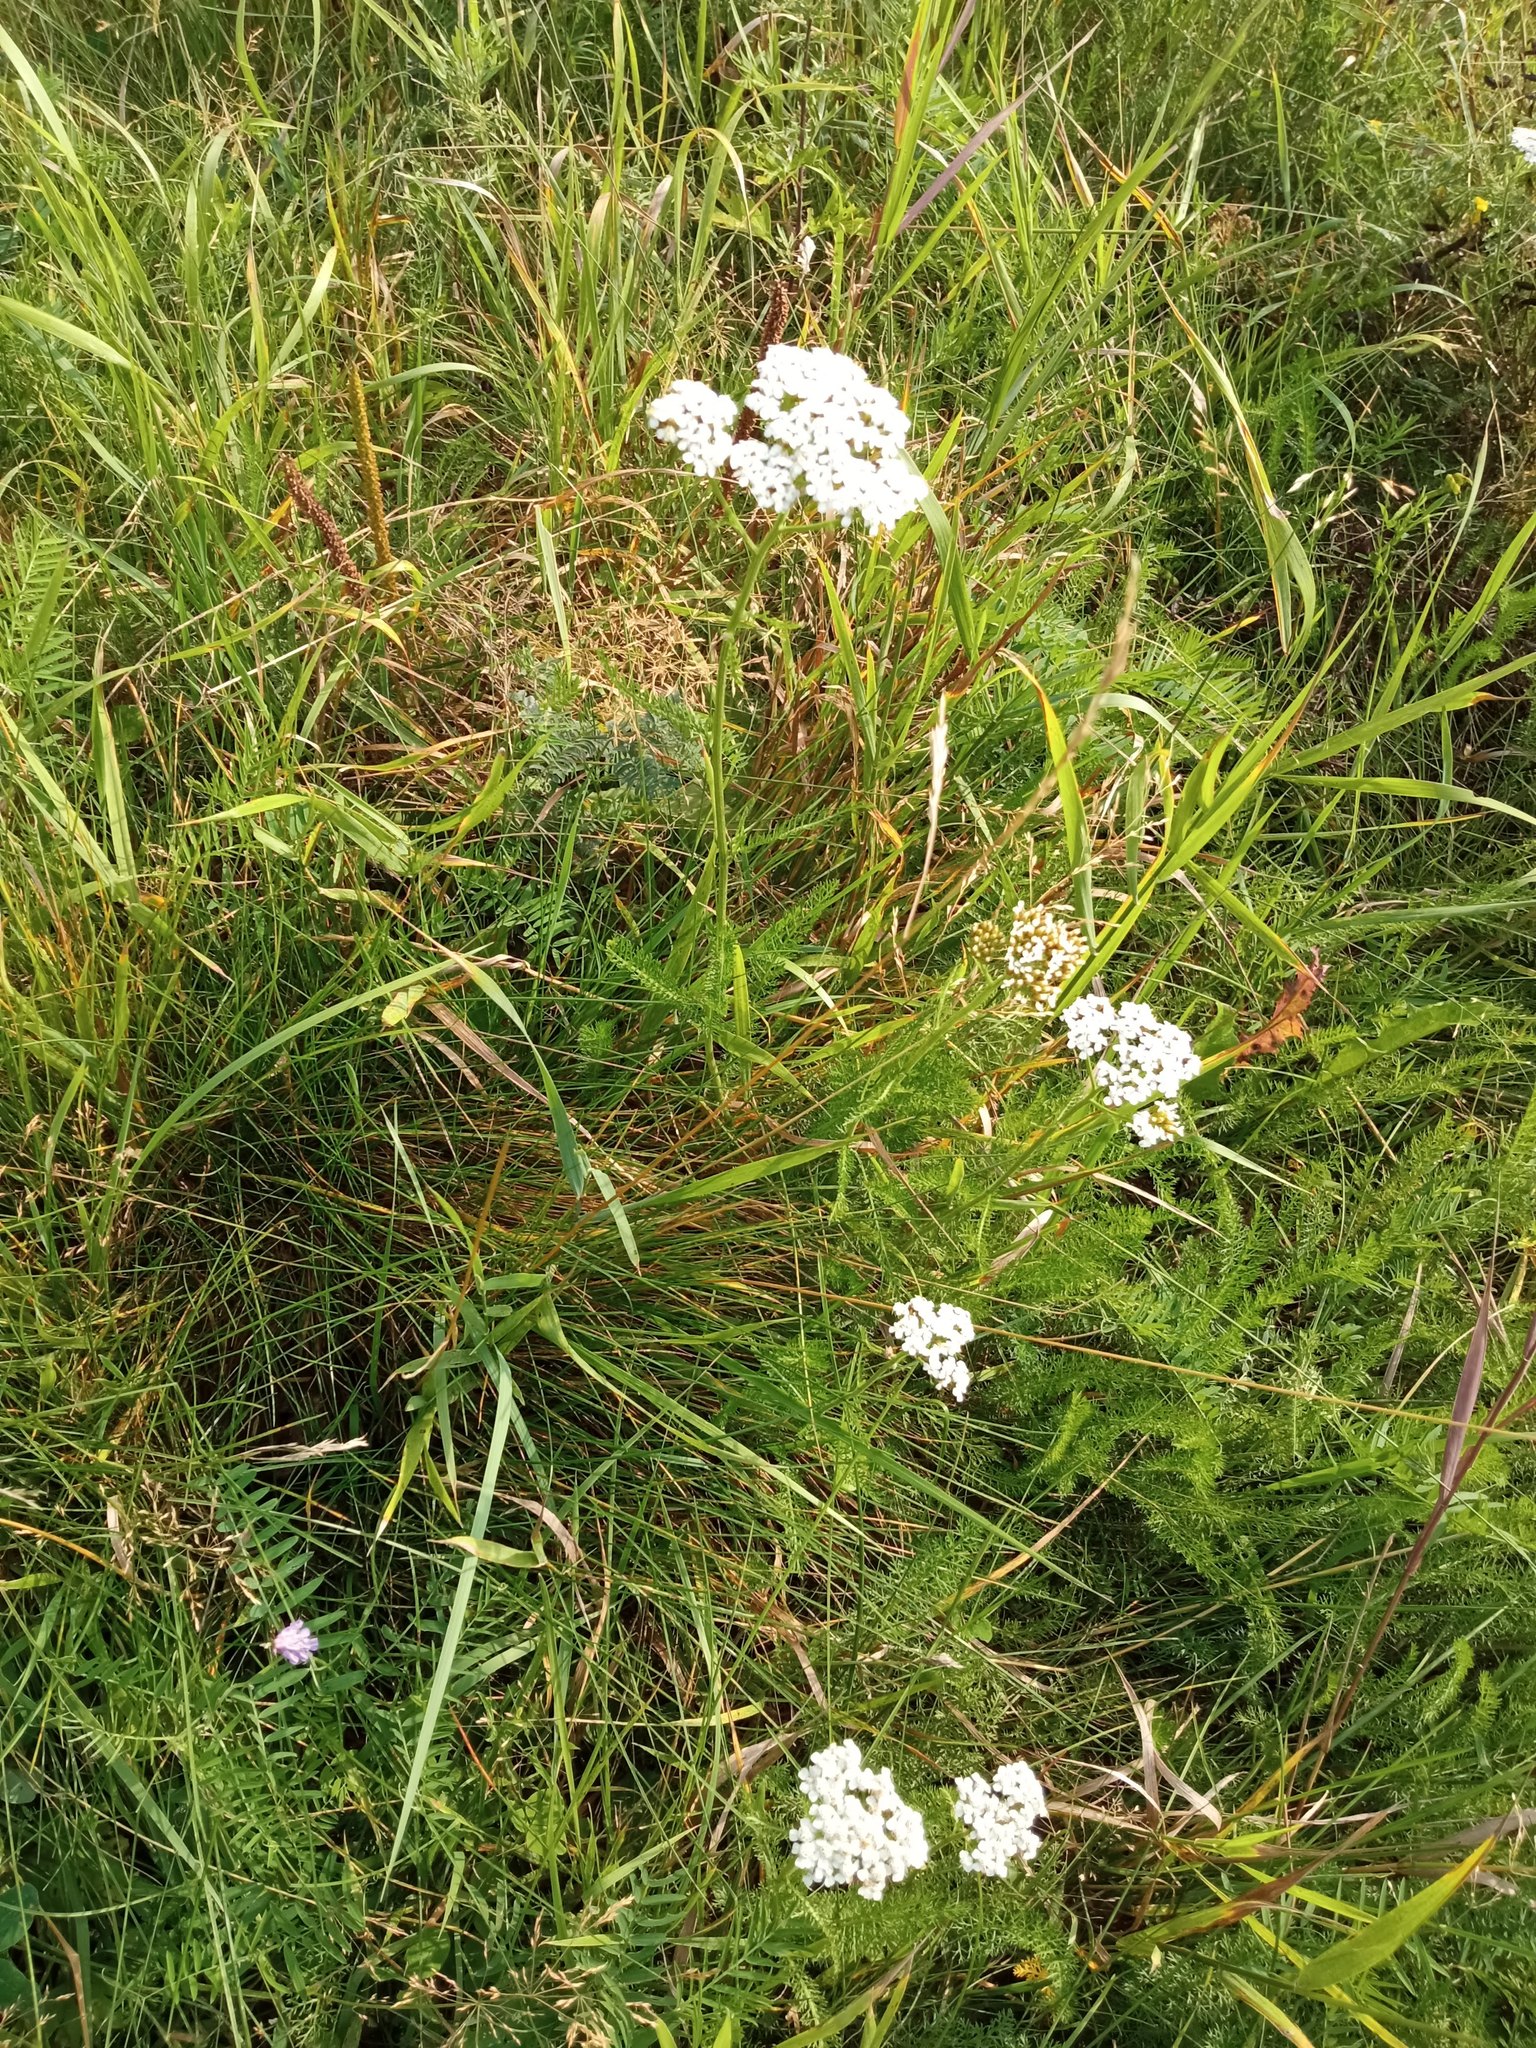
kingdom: Plantae
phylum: Tracheophyta
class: Magnoliopsida
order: Asterales
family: Asteraceae
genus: Achillea
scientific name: Achillea millefolium
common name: Yarrow
